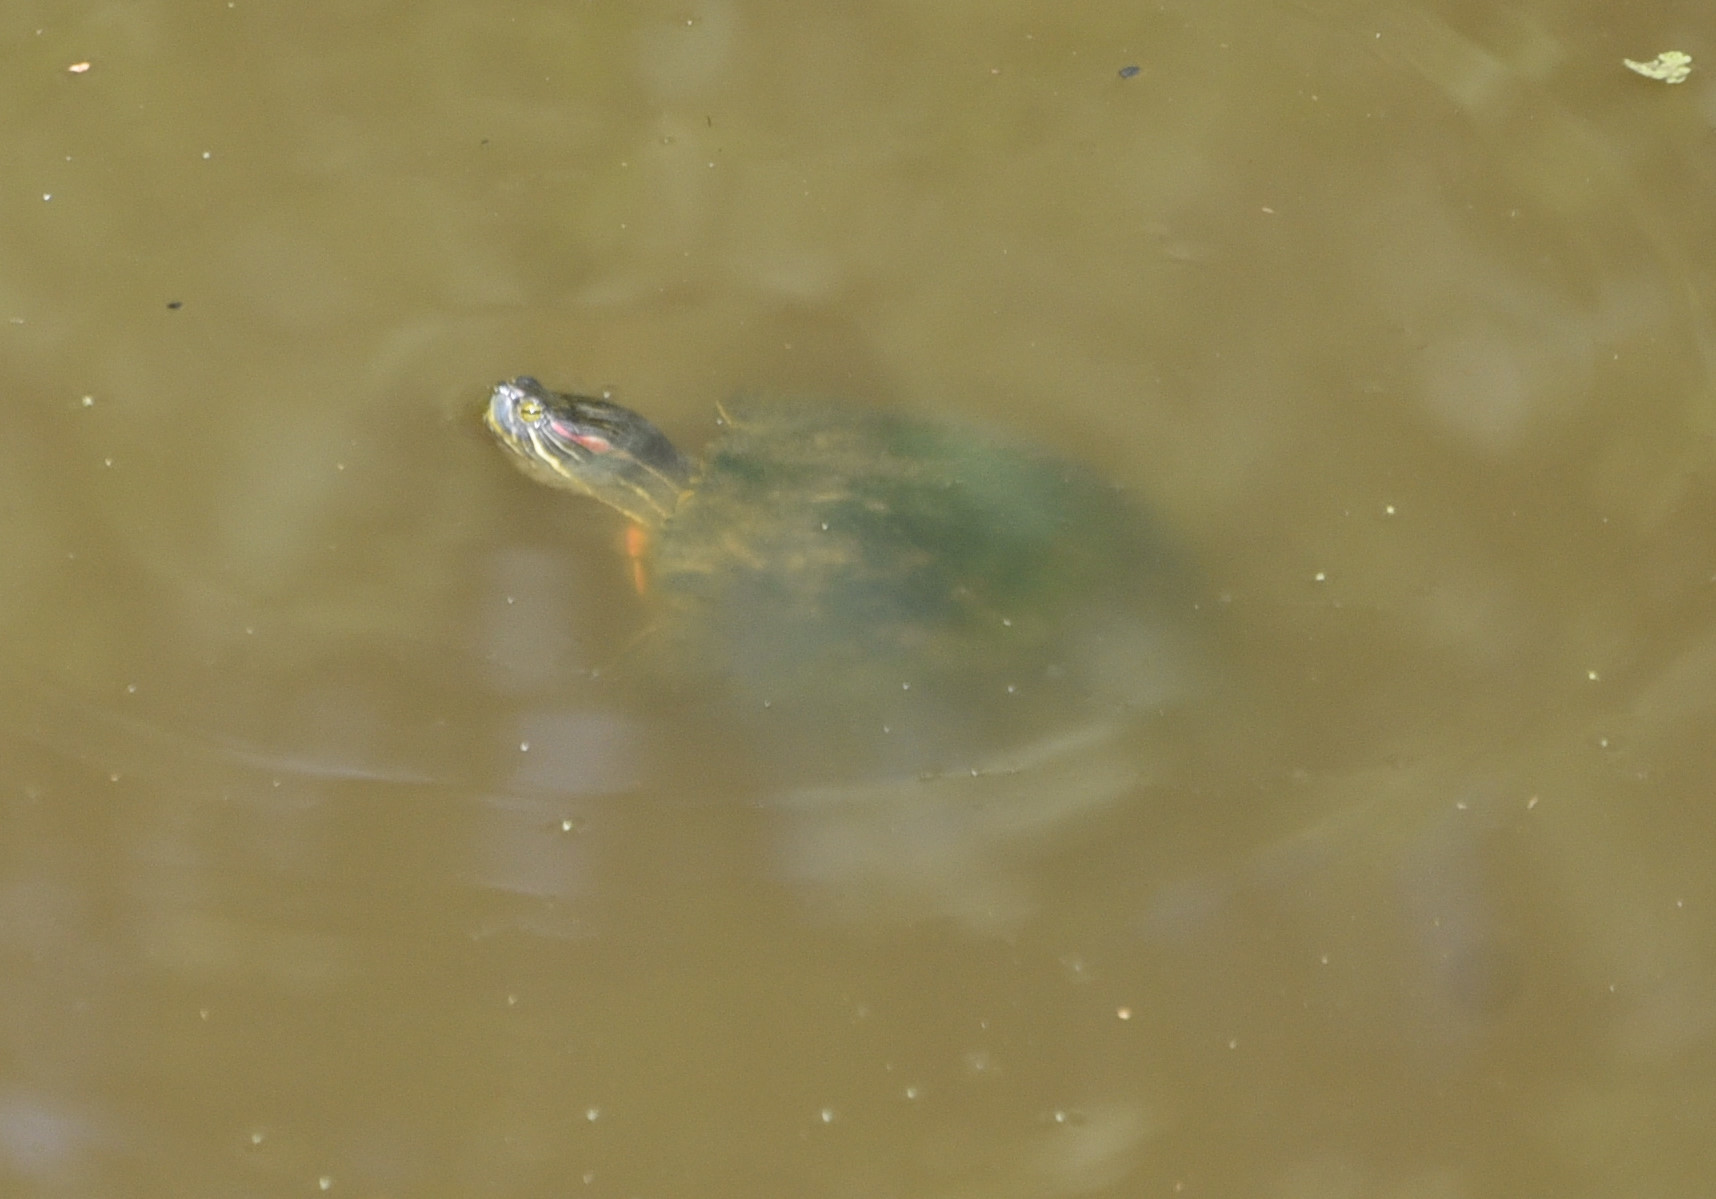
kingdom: Animalia
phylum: Chordata
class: Testudines
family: Emydidae
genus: Trachemys
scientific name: Trachemys scripta
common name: Slider
